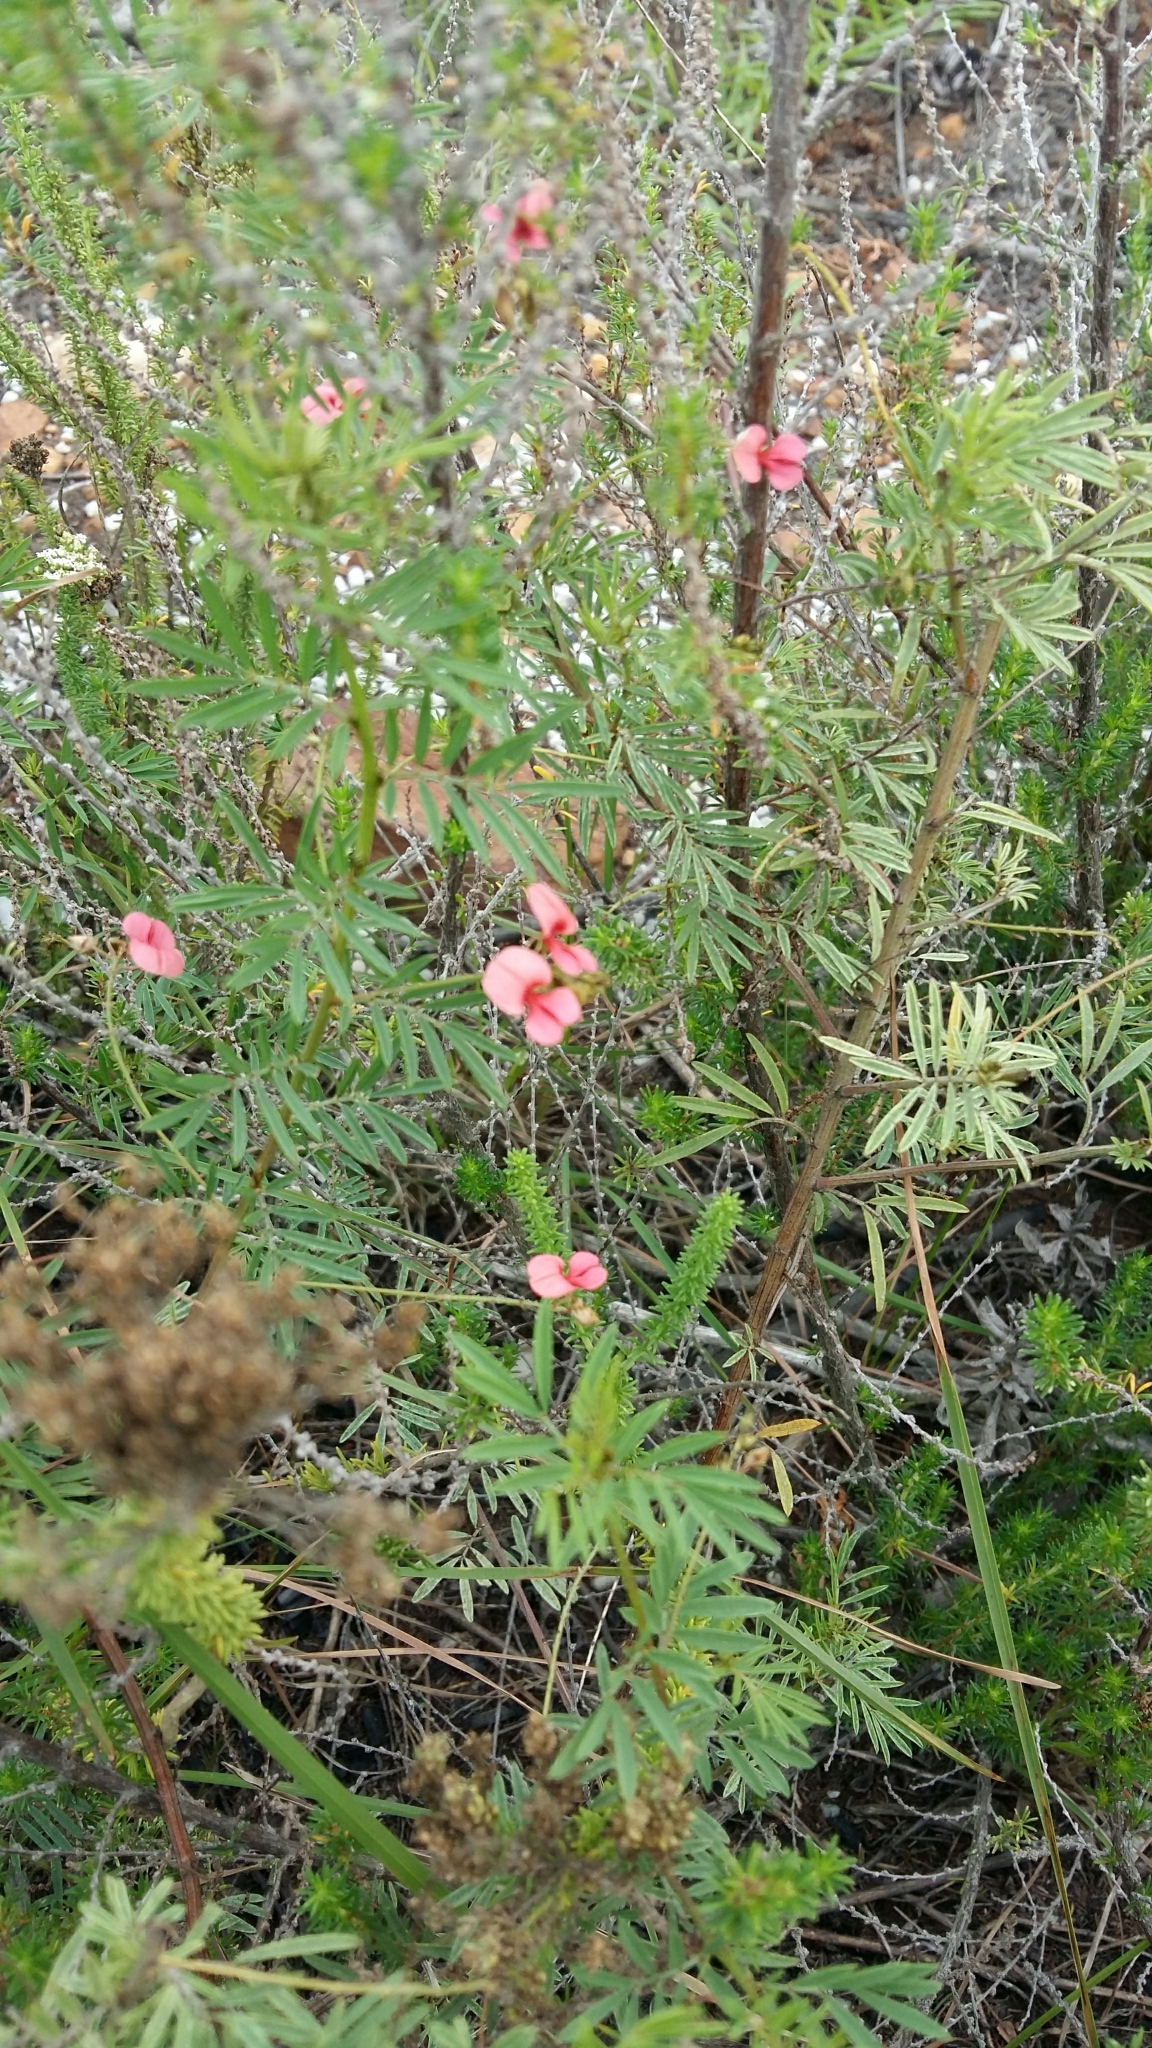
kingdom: Plantae
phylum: Tracheophyta
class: Magnoliopsida
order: Fabales
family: Fabaceae
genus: Indigofera
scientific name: Indigofera verrucosa
